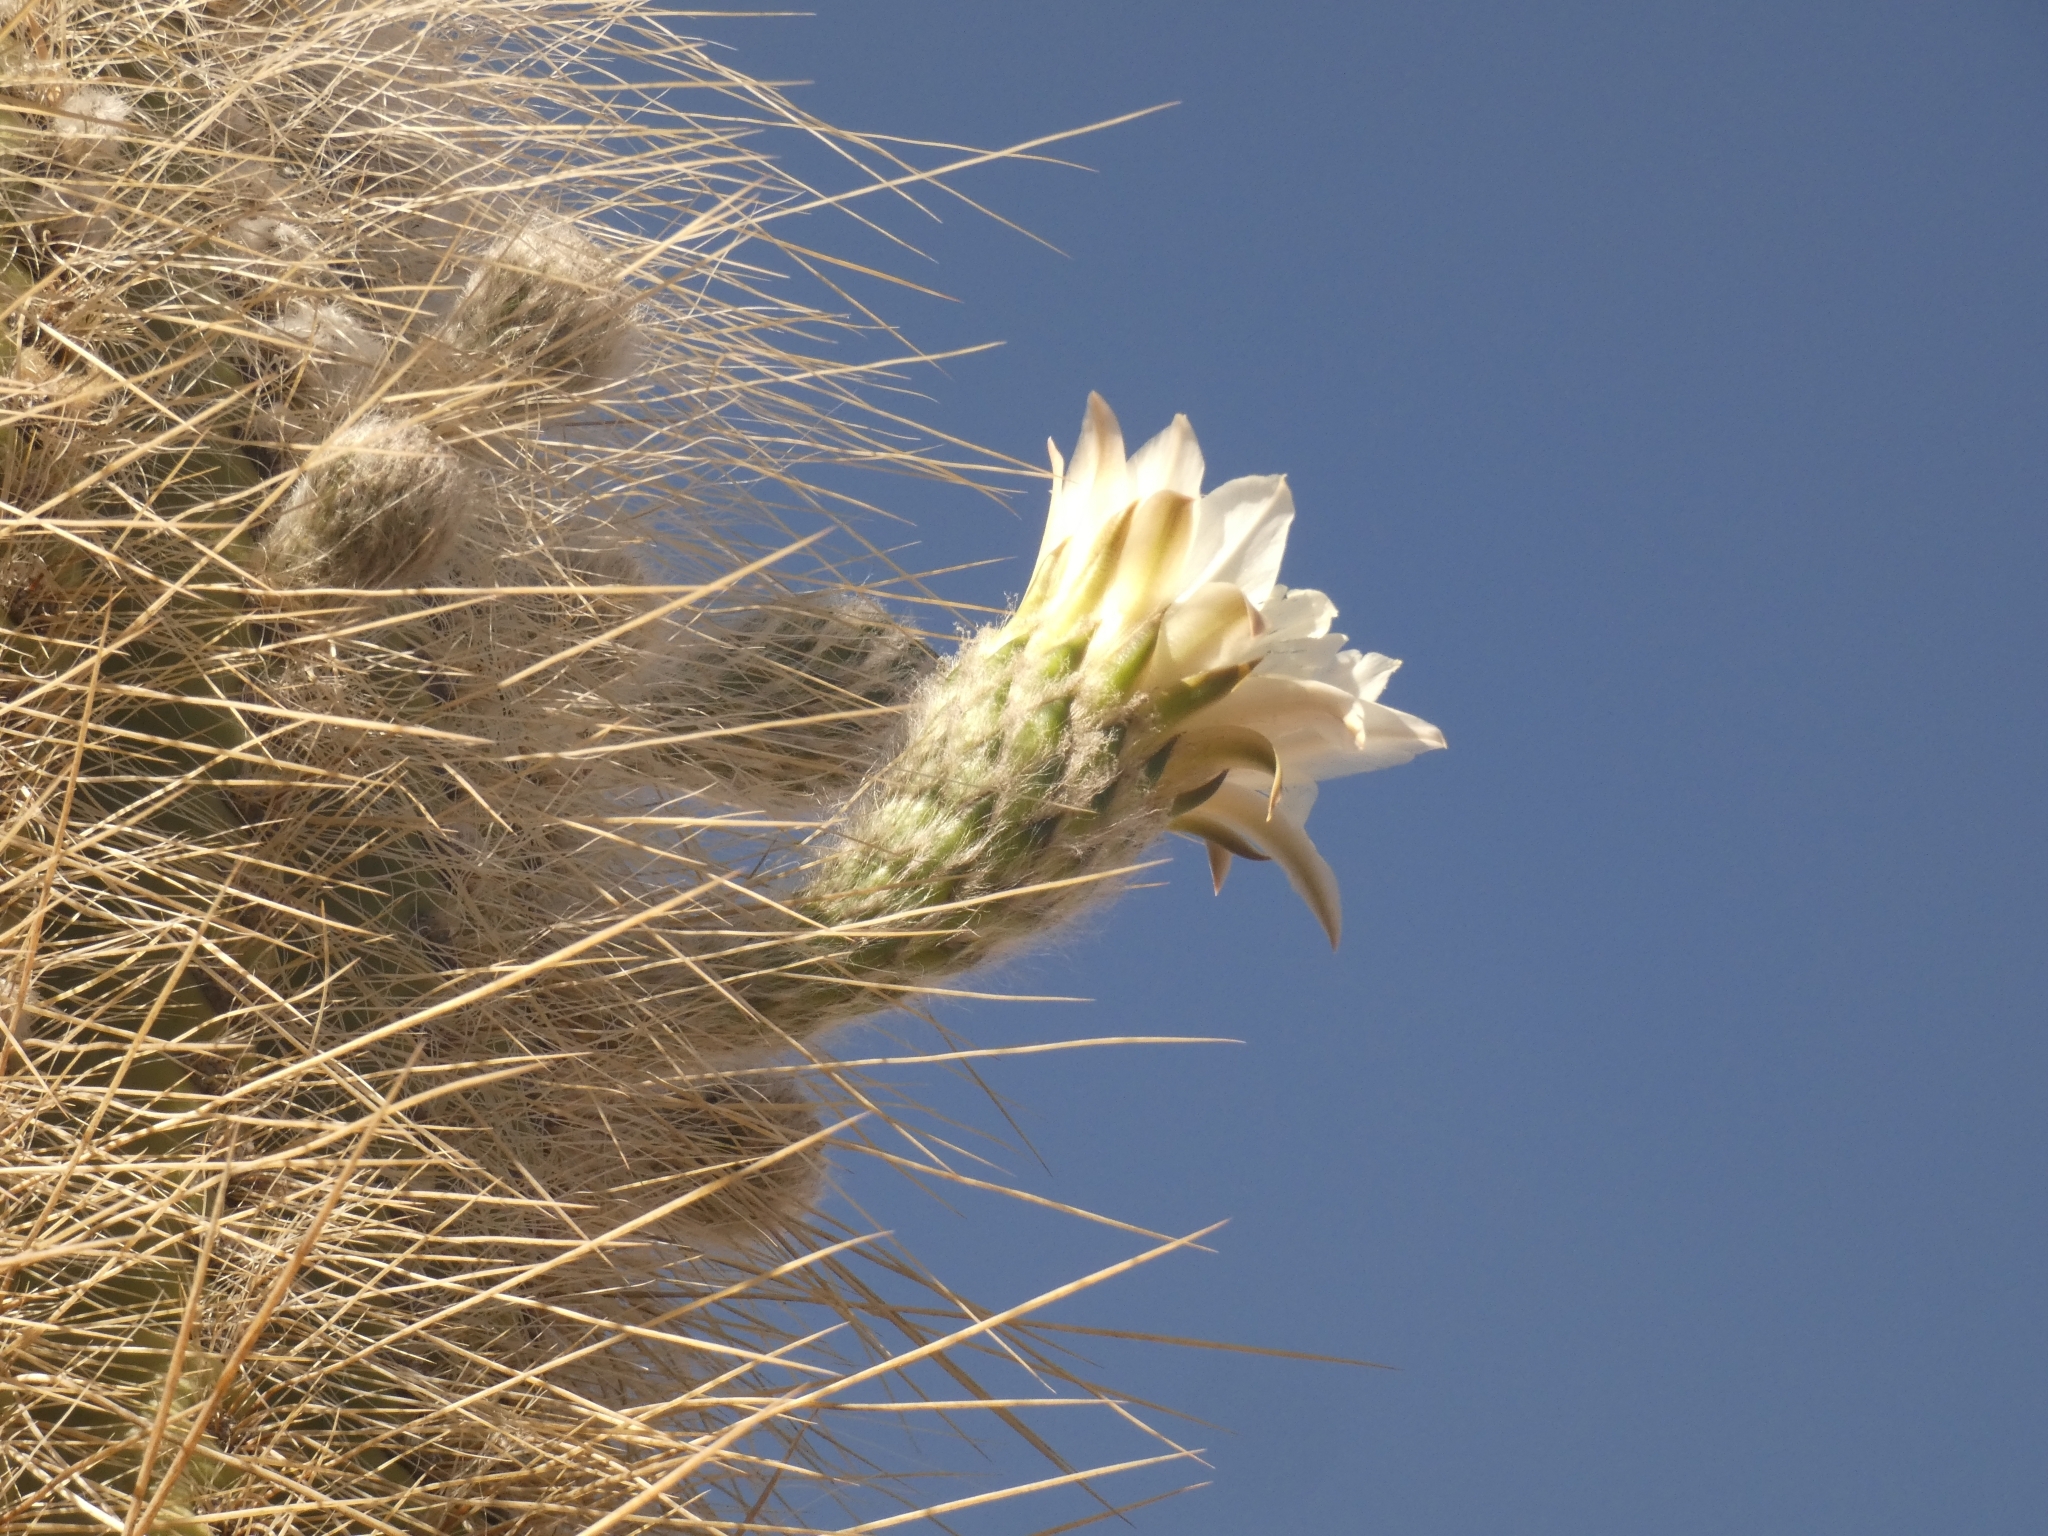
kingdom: Plantae
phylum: Tracheophyta
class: Magnoliopsida
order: Caryophyllales
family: Cactaceae
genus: Leucostele
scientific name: Leucostele atacamensis
